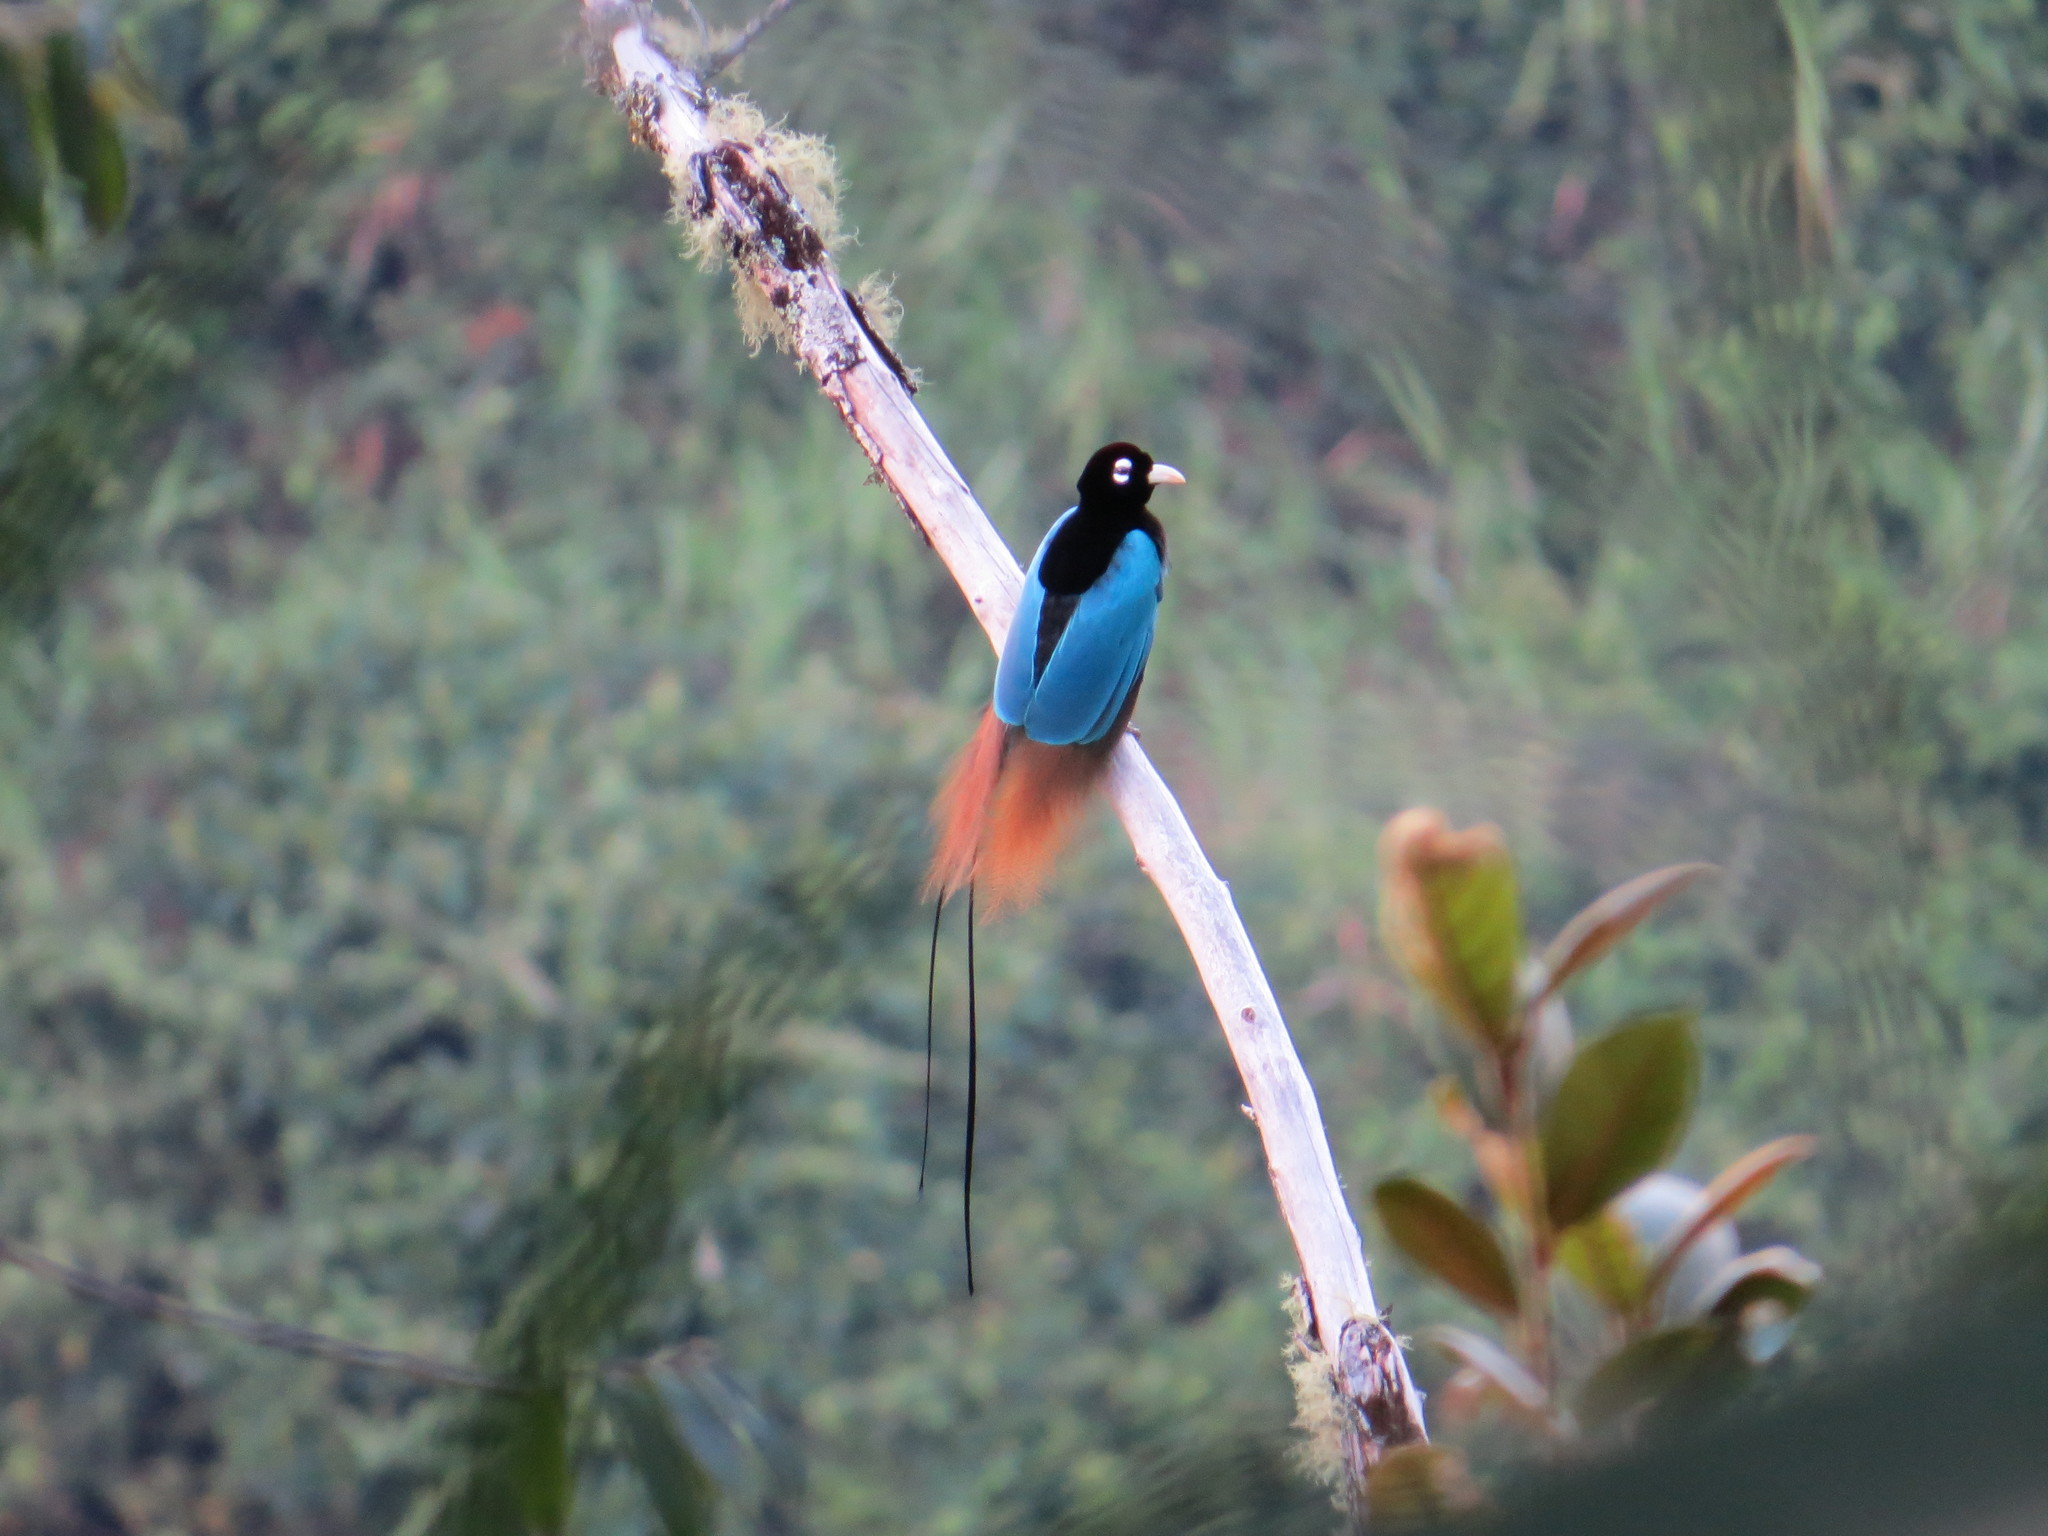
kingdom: Animalia
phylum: Chordata
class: Aves
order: Passeriformes
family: Paradisaeidae
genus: Paradisaea
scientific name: Paradisaea rudolphi
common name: Blue bird-of-paradise
